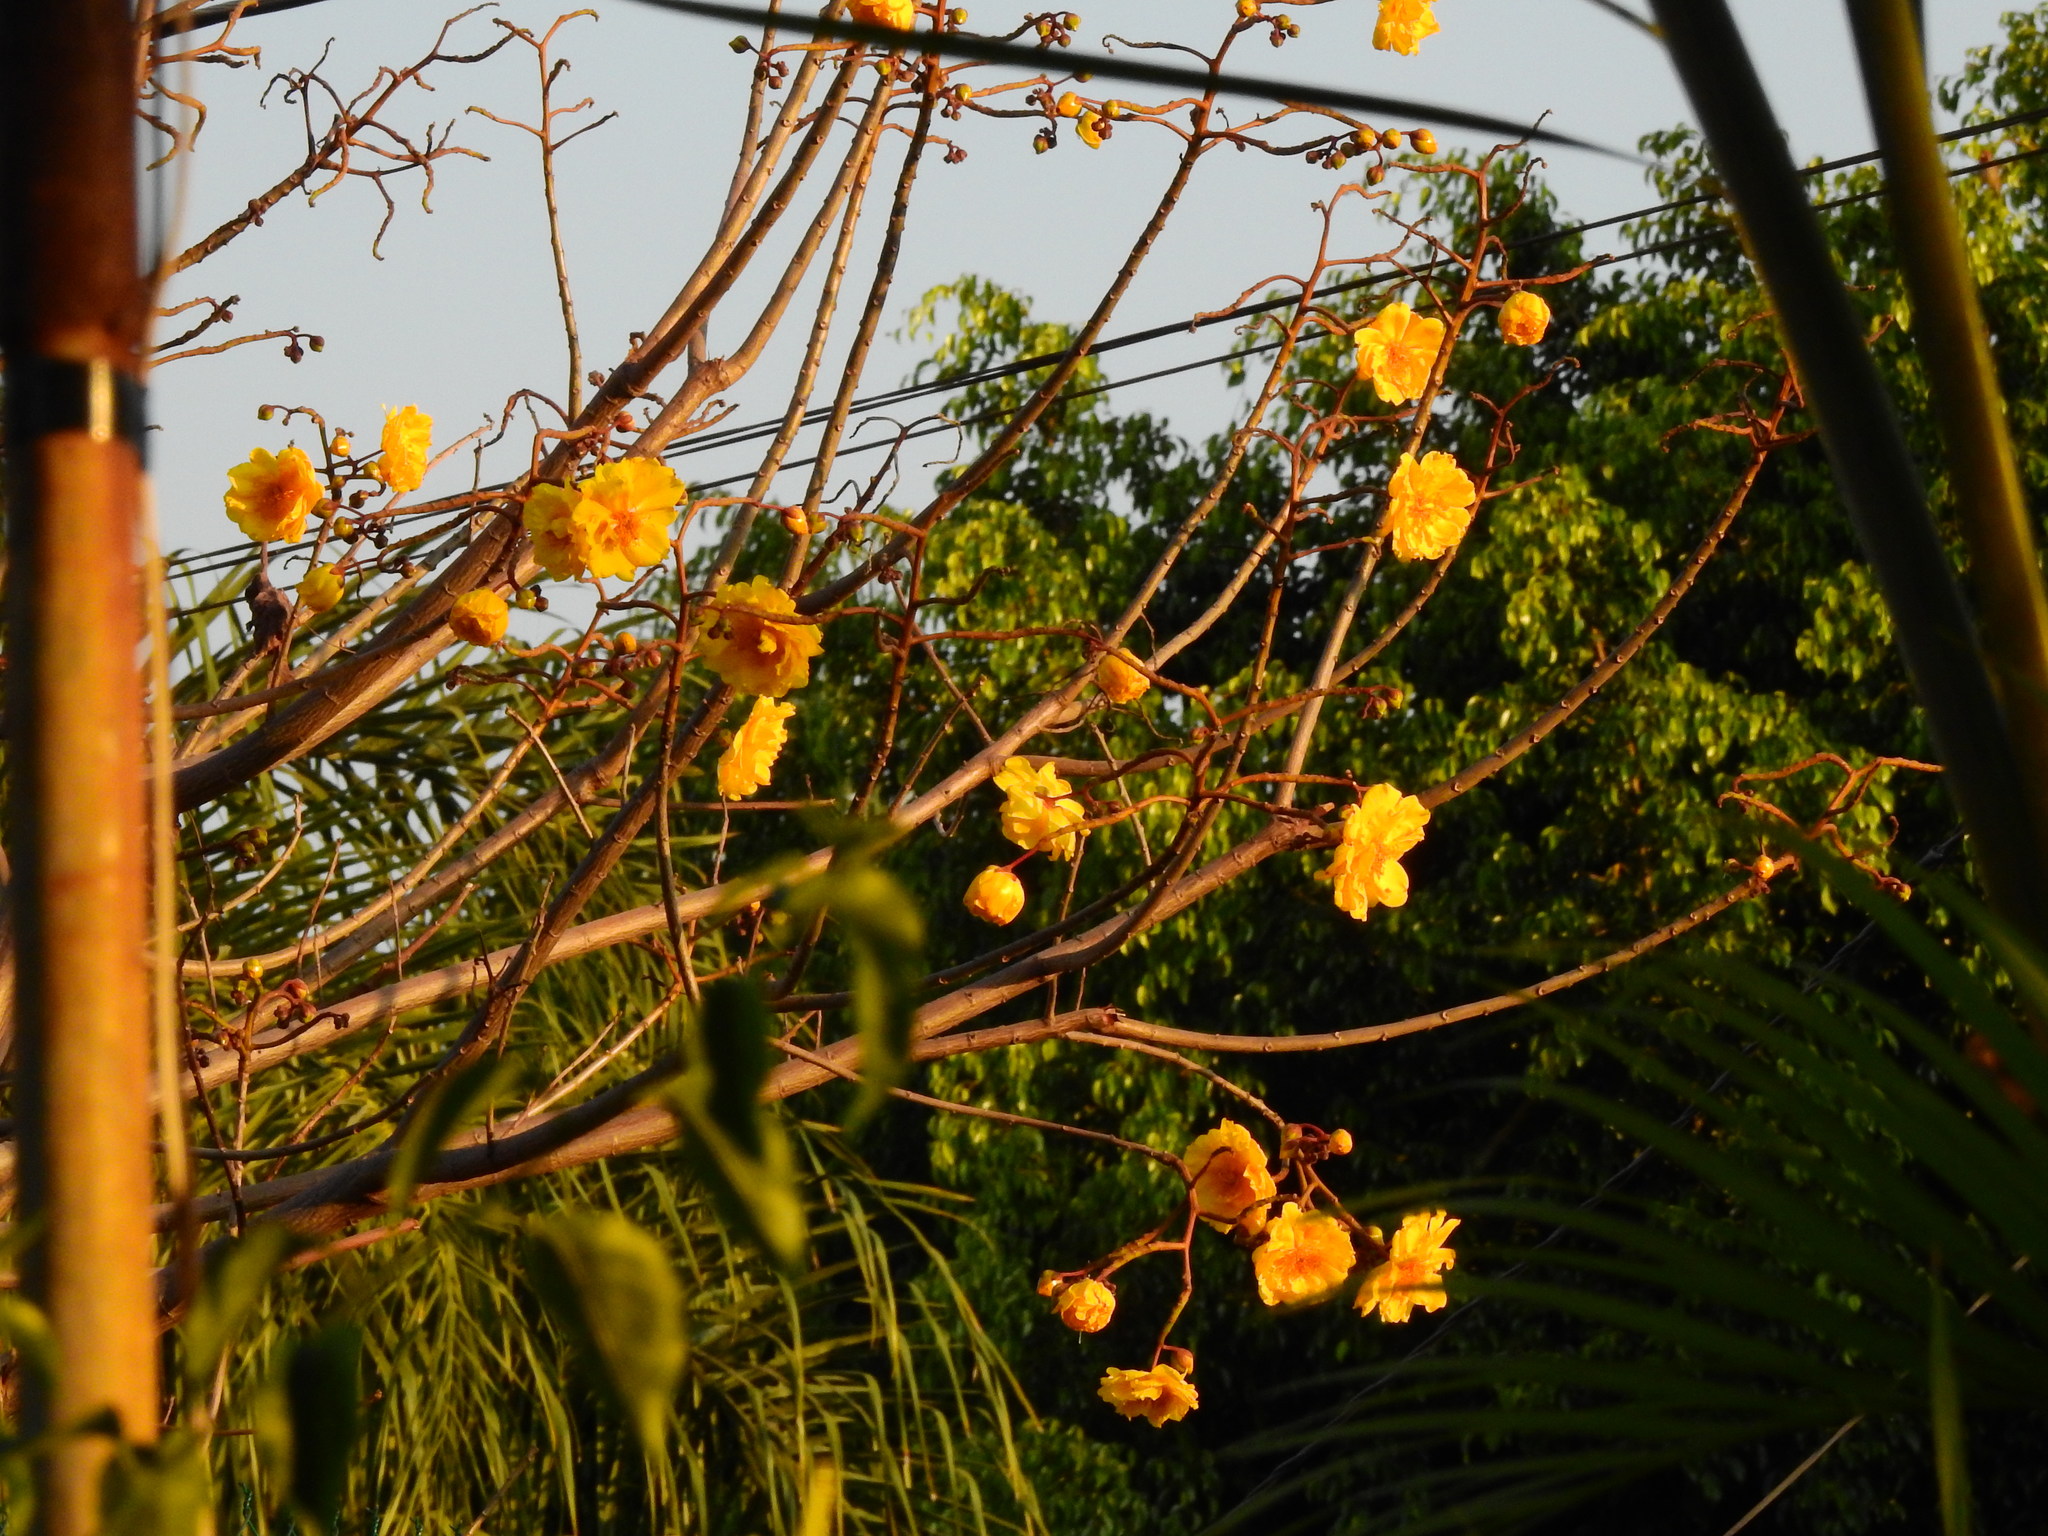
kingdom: Plantae
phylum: Tracheophyta
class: Magnoliopsida
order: Malvales
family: Cochlospermaceae
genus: Cochlospermum
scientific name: Cochlospermum vitifolium
